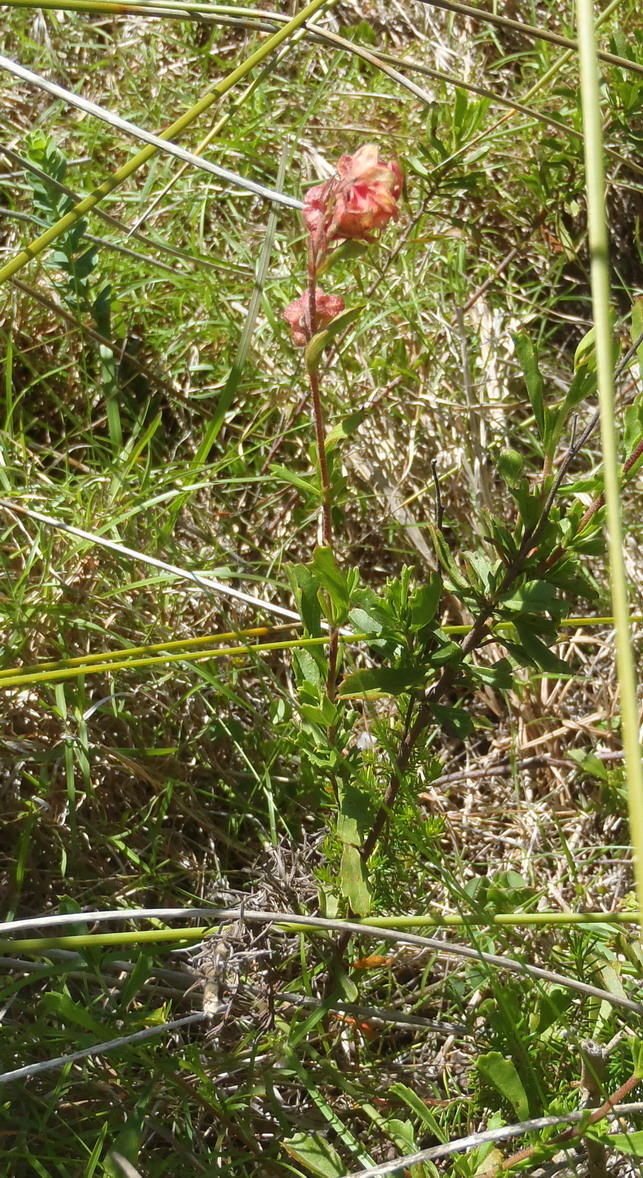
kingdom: Plantae
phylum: Tracheophyta
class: Magnoliopsida
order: Malvales
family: Malvaceae
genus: Hermannia
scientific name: Hermannia flammea
